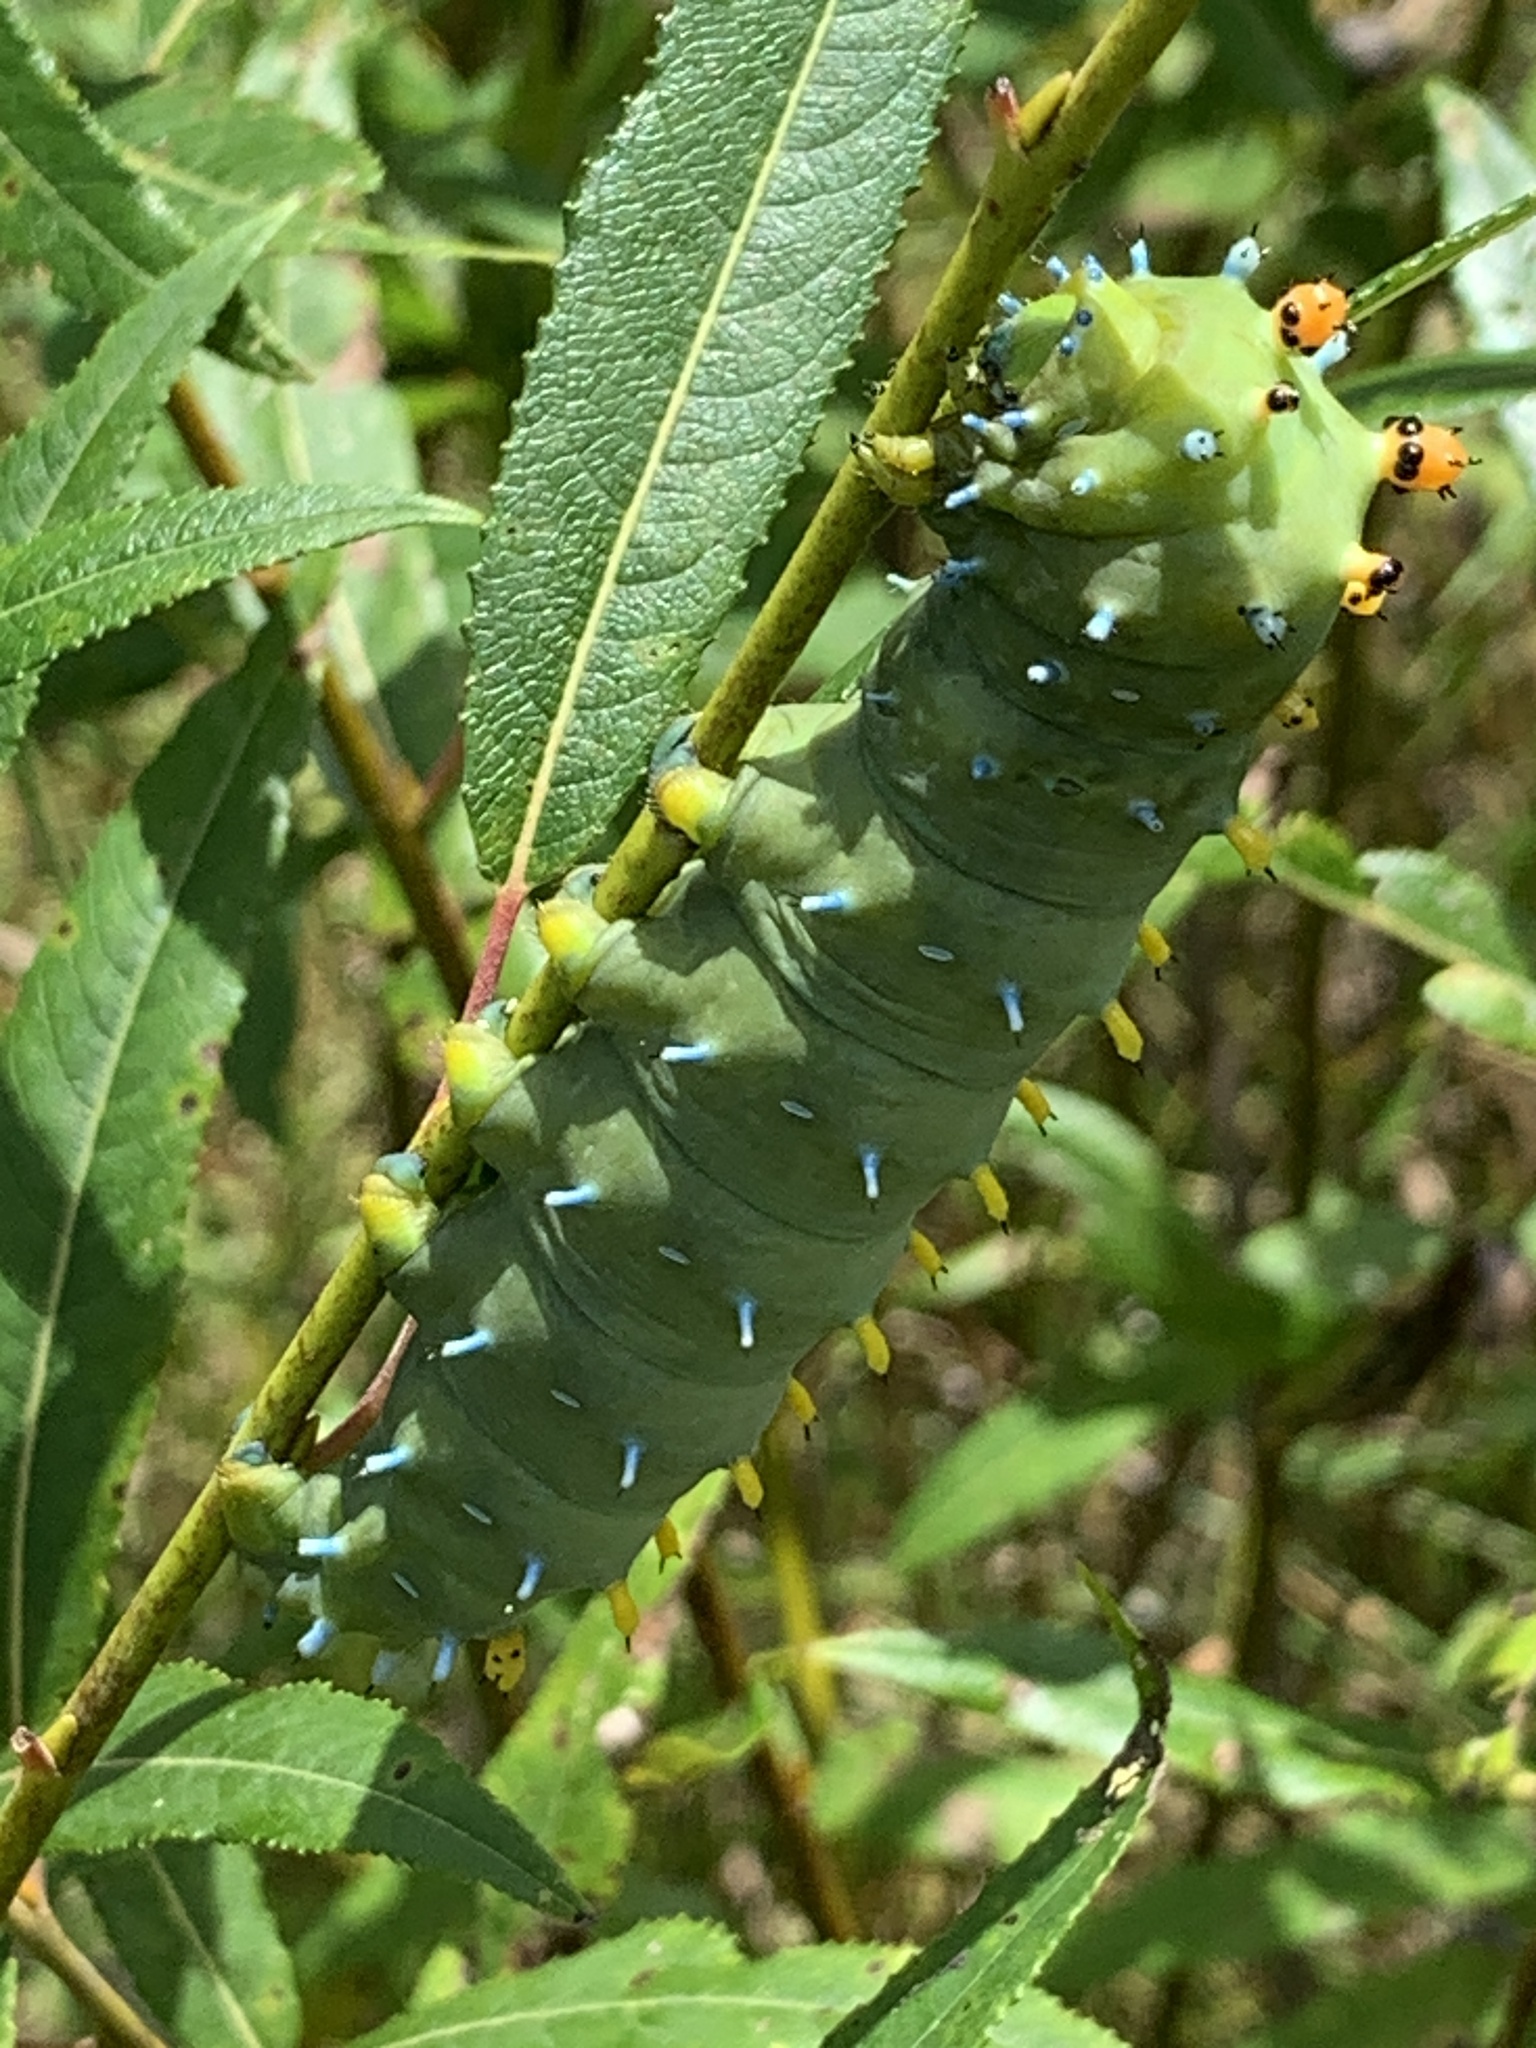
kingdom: Animalia
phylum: Arthropoda
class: Insecta
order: Lepidoptera
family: Saturniidae
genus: Hyalophora
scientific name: Hyalophora cecropia
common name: Cecropia silkmoth
